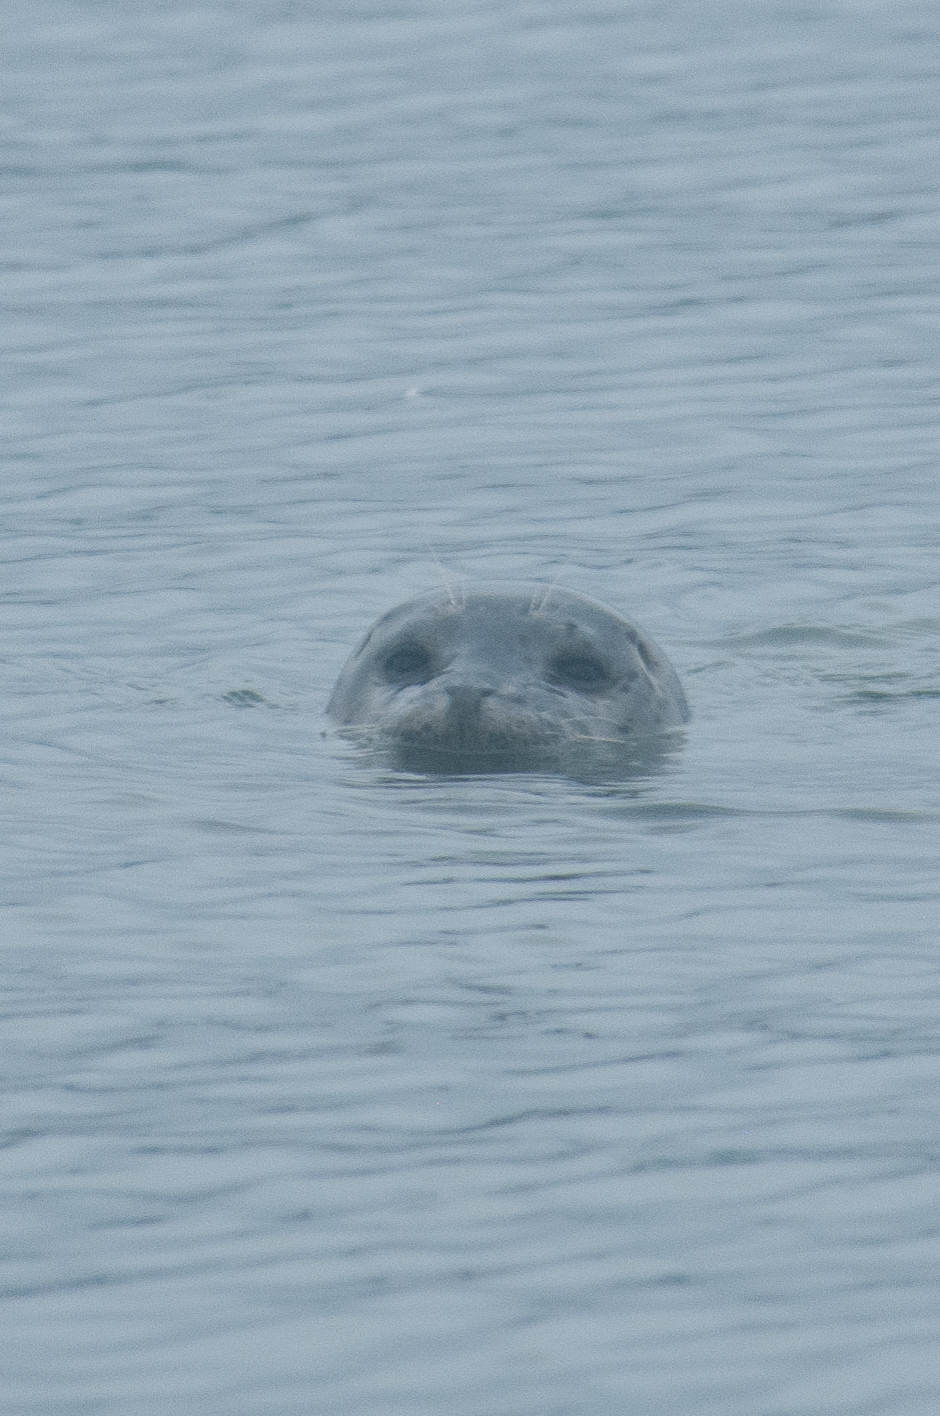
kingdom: Animalia
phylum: Chordata
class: Mammalia
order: Carnivora
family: Phocidae
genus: Phoca
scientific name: Phoca vitulina
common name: Harbor seal
